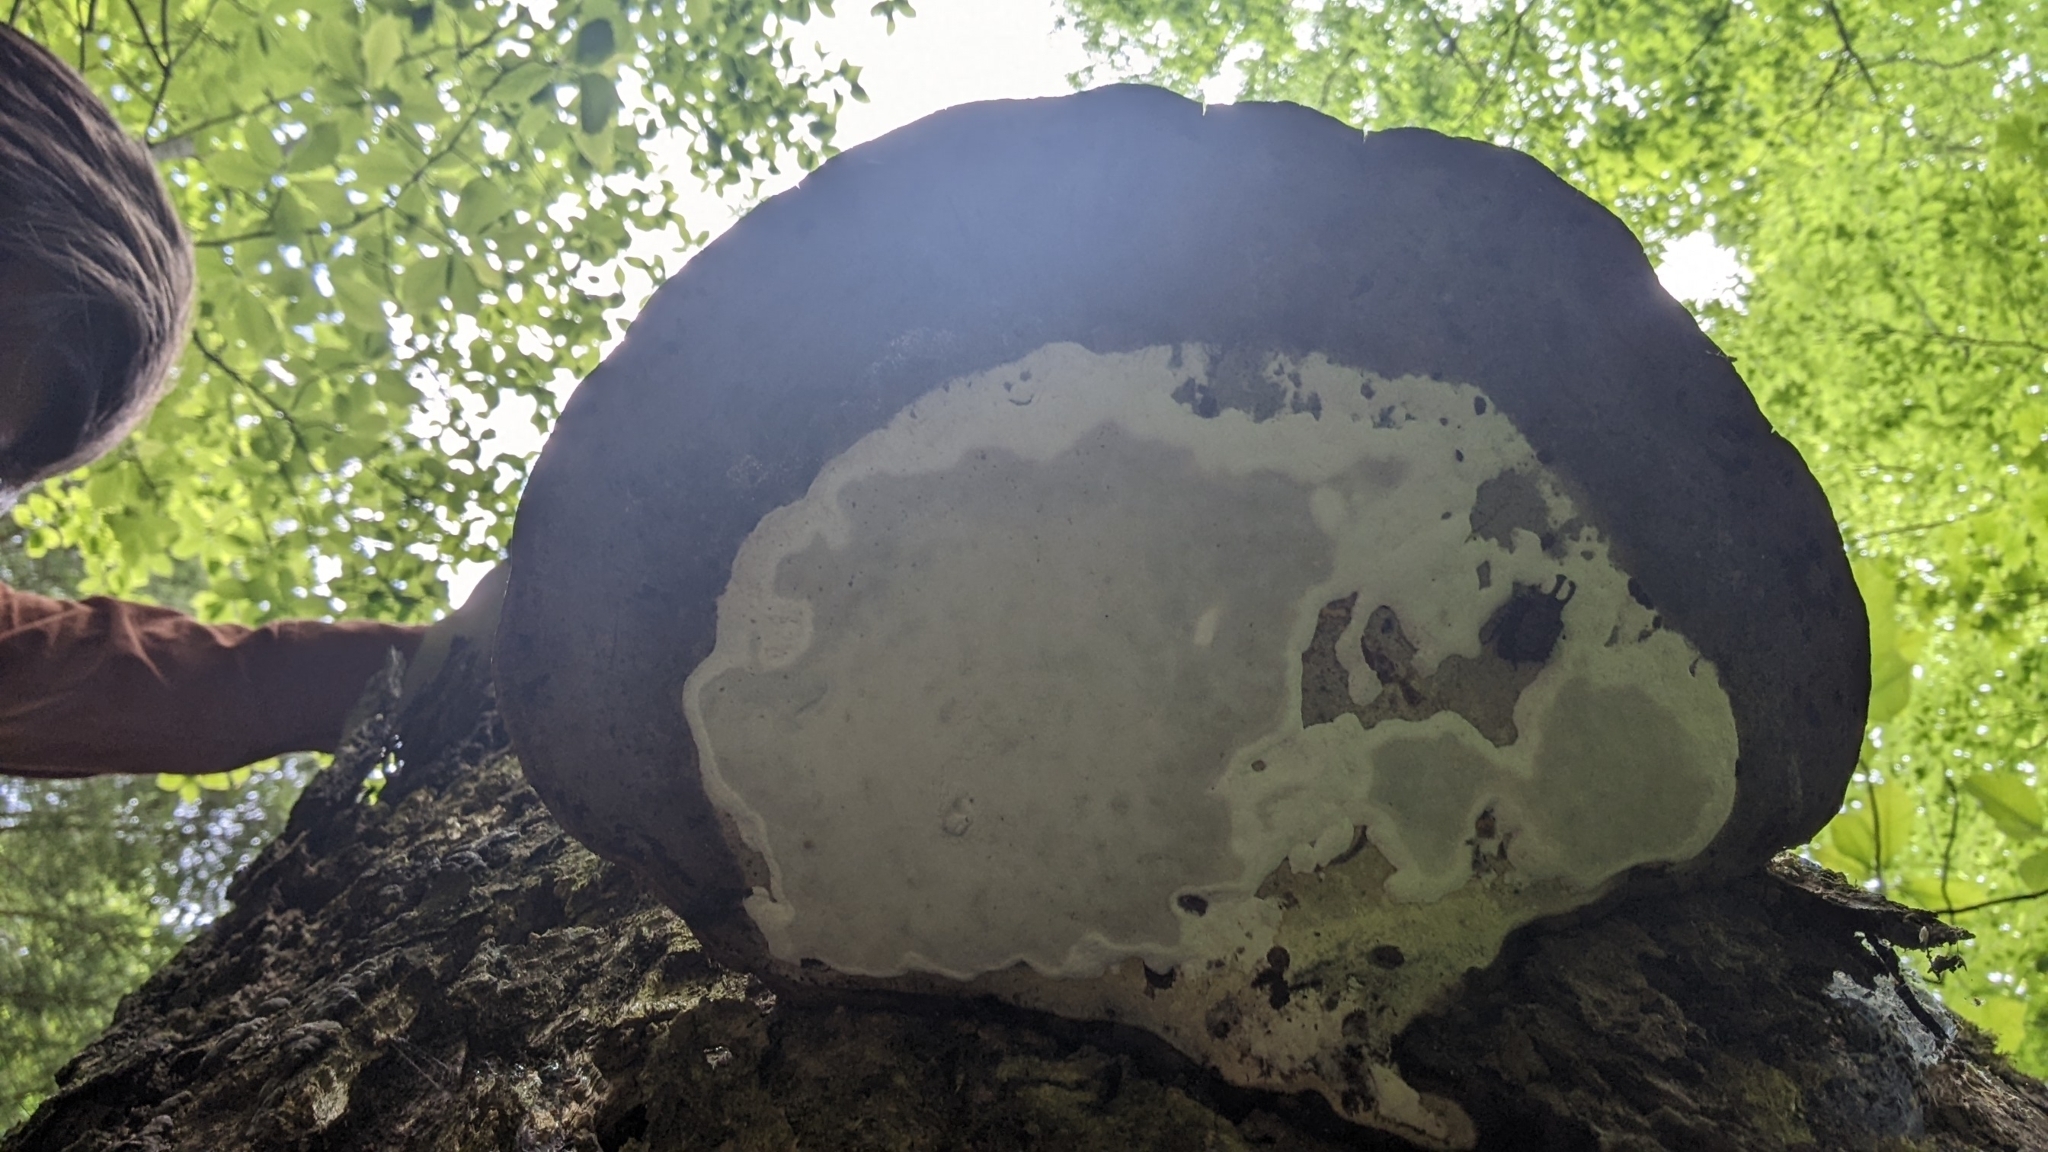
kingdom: Fungi
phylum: Ascomycota
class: Sordariomycetes
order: Xylariales
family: Xylariaceae
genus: Kretzschmaria
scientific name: Kretzschmaria deusta
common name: Brittle cinder
